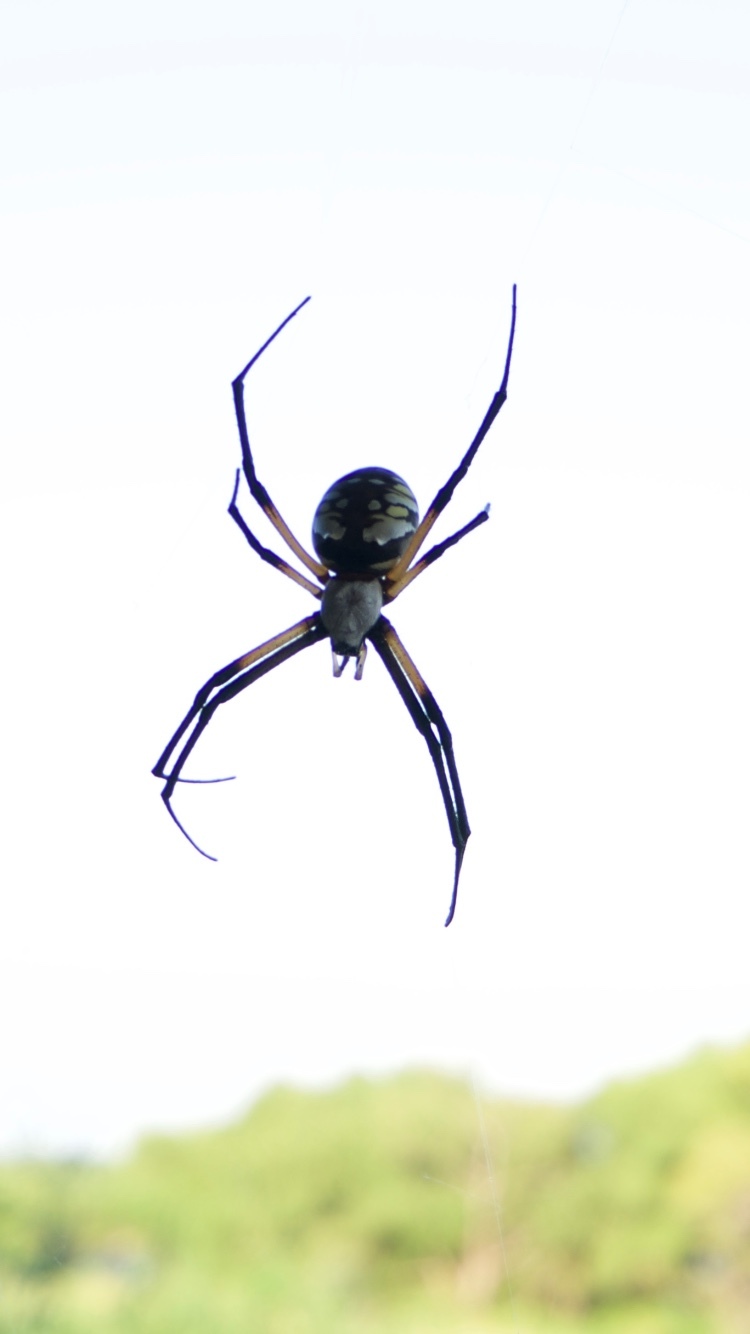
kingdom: Animalia
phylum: Arthropoda
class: Arachnida
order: Araneae
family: Araneidae
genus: Argiope
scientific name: Argiope aurantia
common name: Orb weavers
